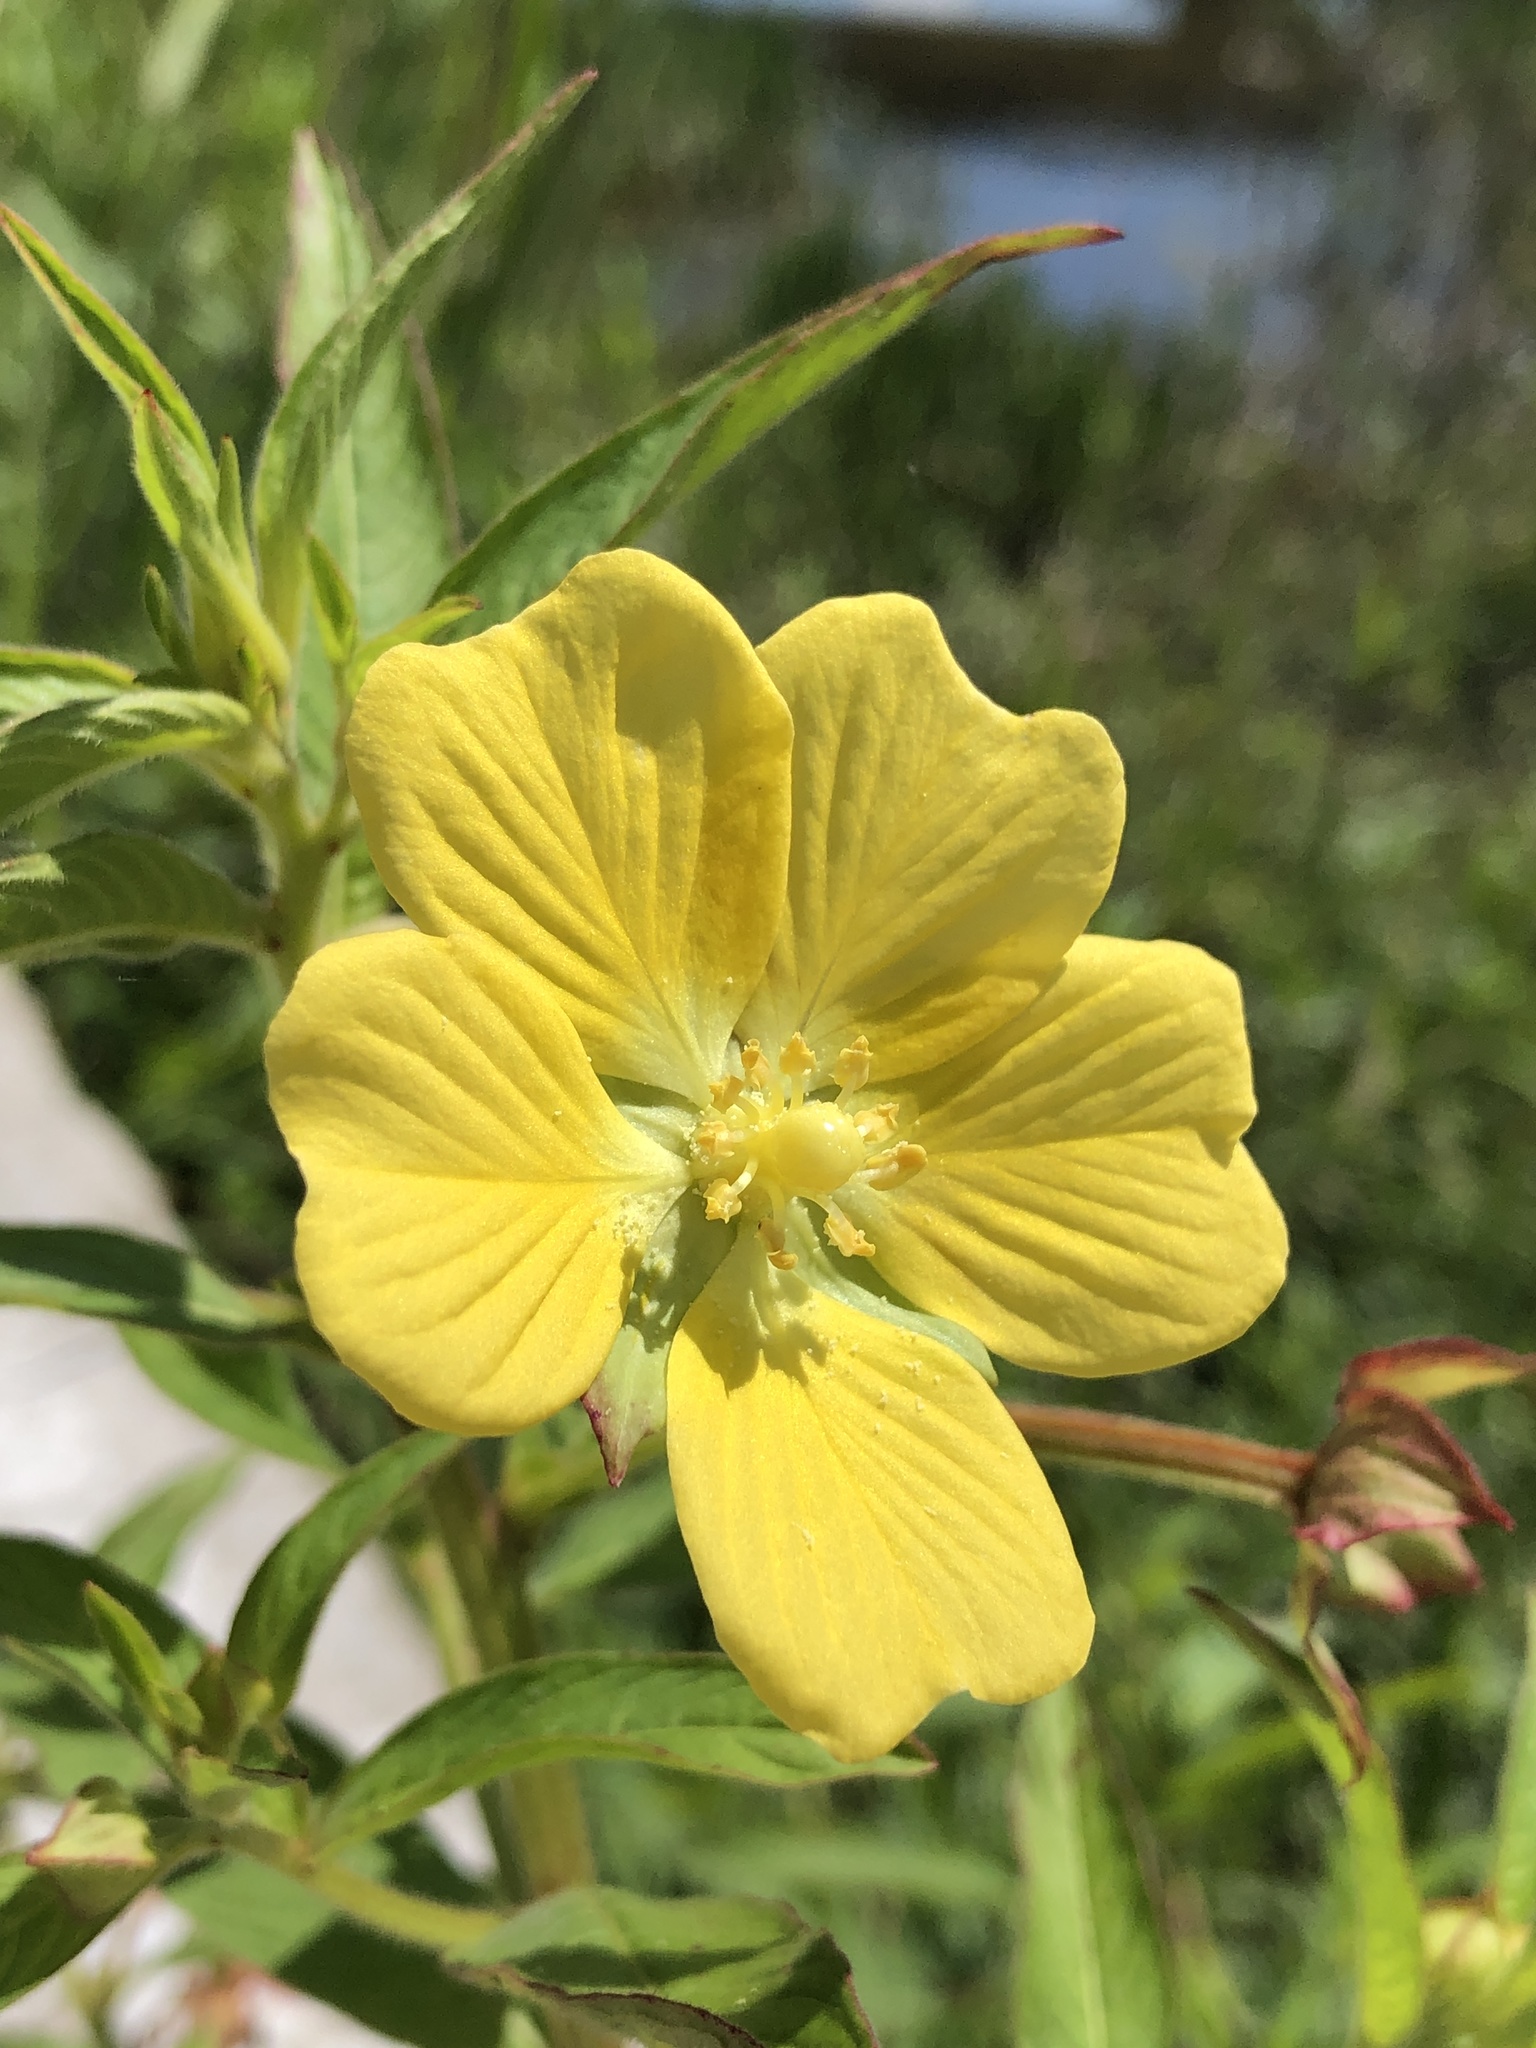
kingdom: Plantae
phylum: Tracheophyta
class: Magnoliopsida
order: Myrtales
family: Onagraceae
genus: Ludwigia
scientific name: Ludwigia octovalvis
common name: Water-primrose
